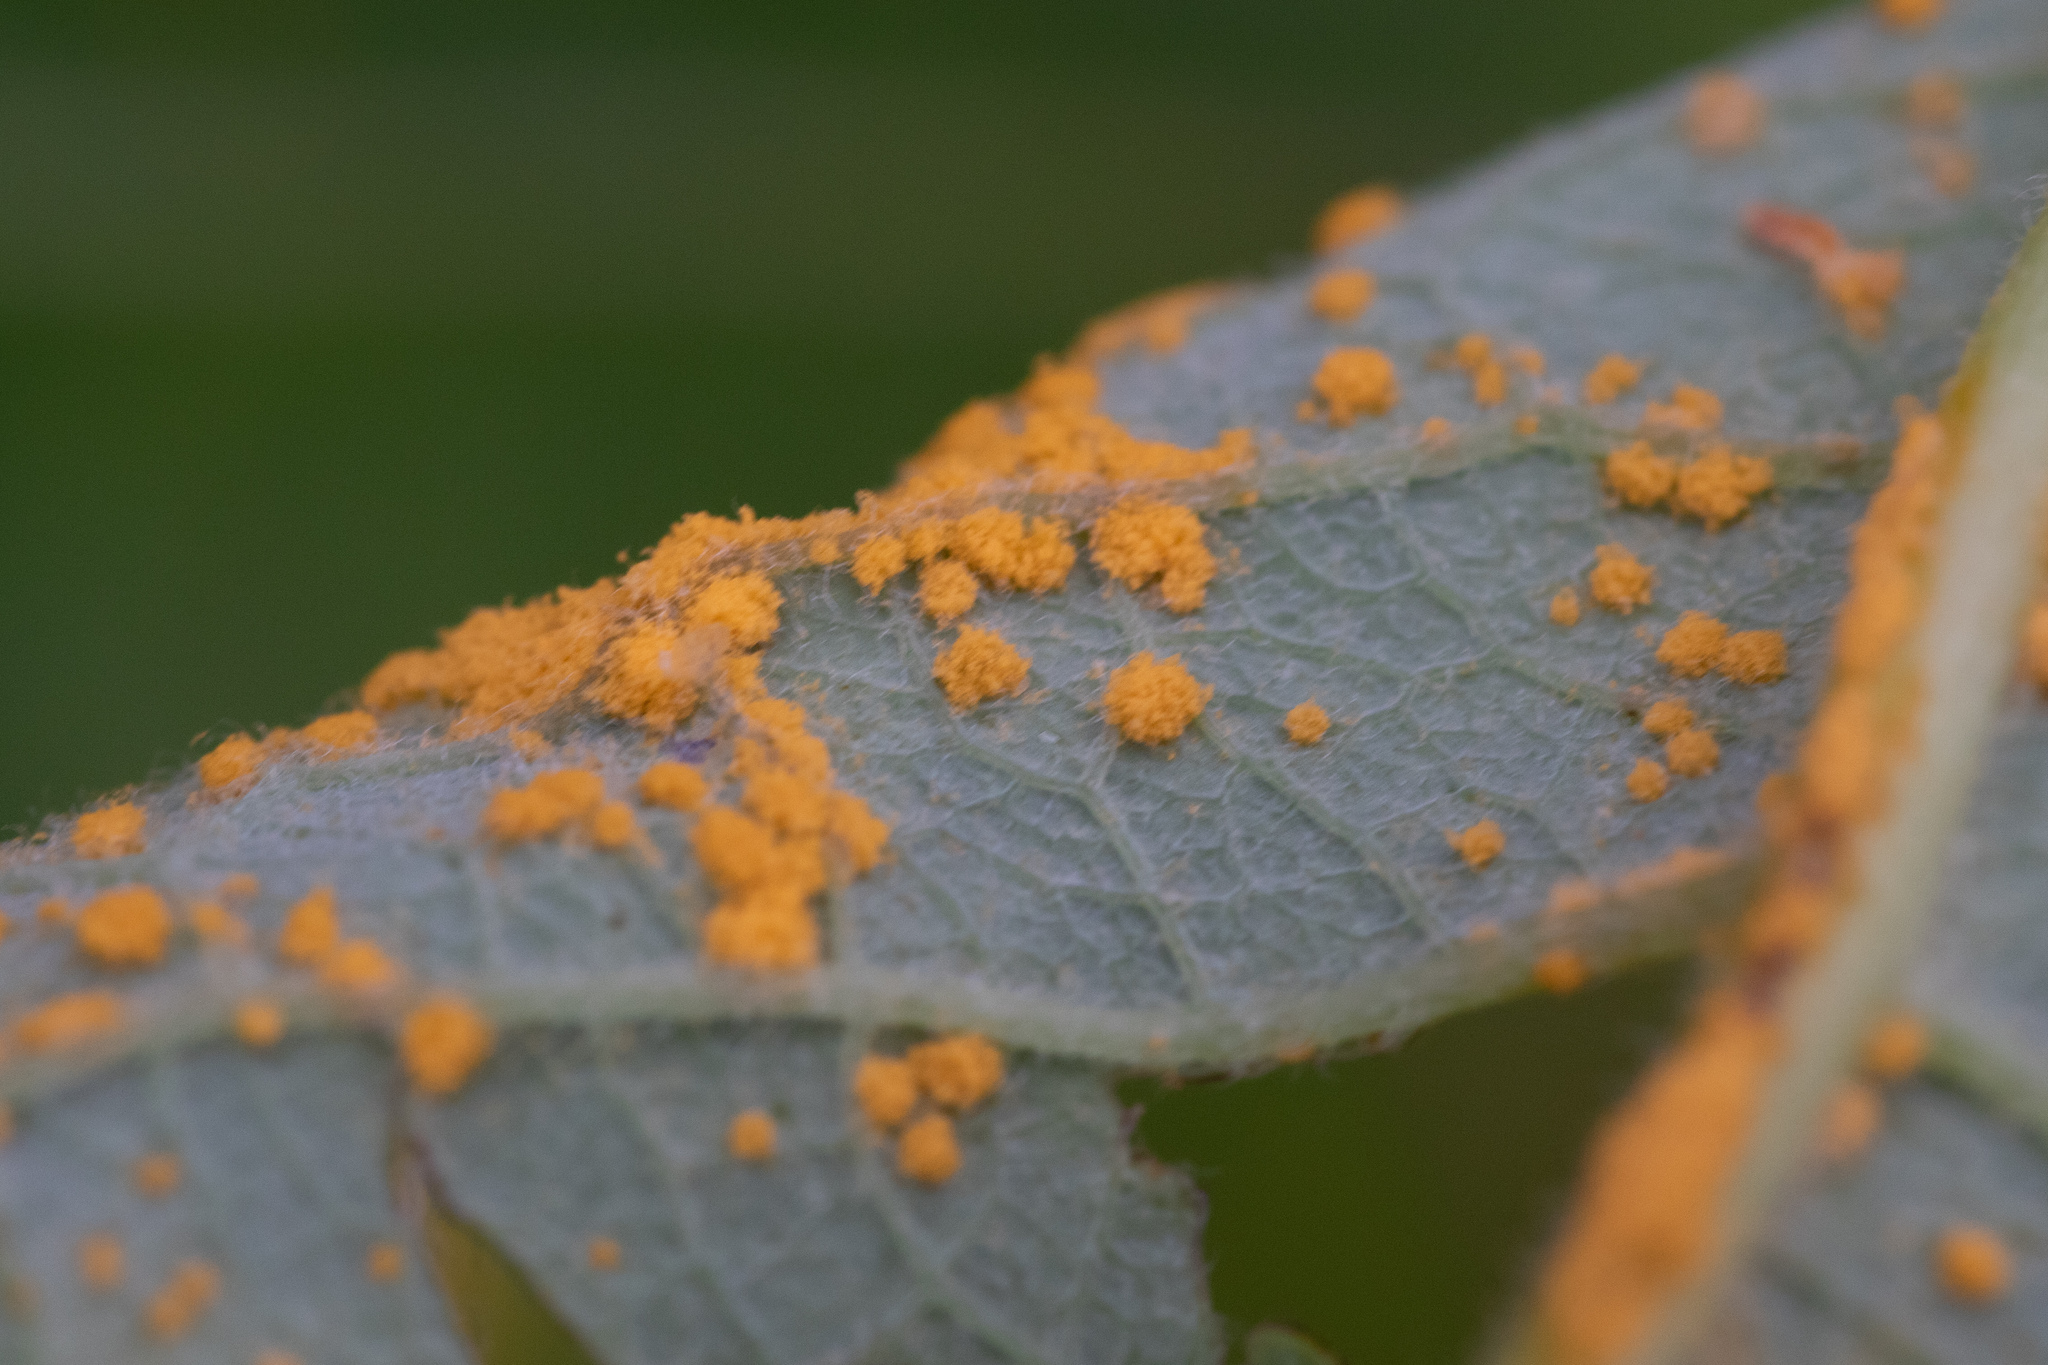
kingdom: Fungi
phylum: Basidiomycota
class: Pucciniomycetes
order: Pucciniales
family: Coleosporiaceae
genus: Coleosporium
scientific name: Coleosporium tussilaginis
